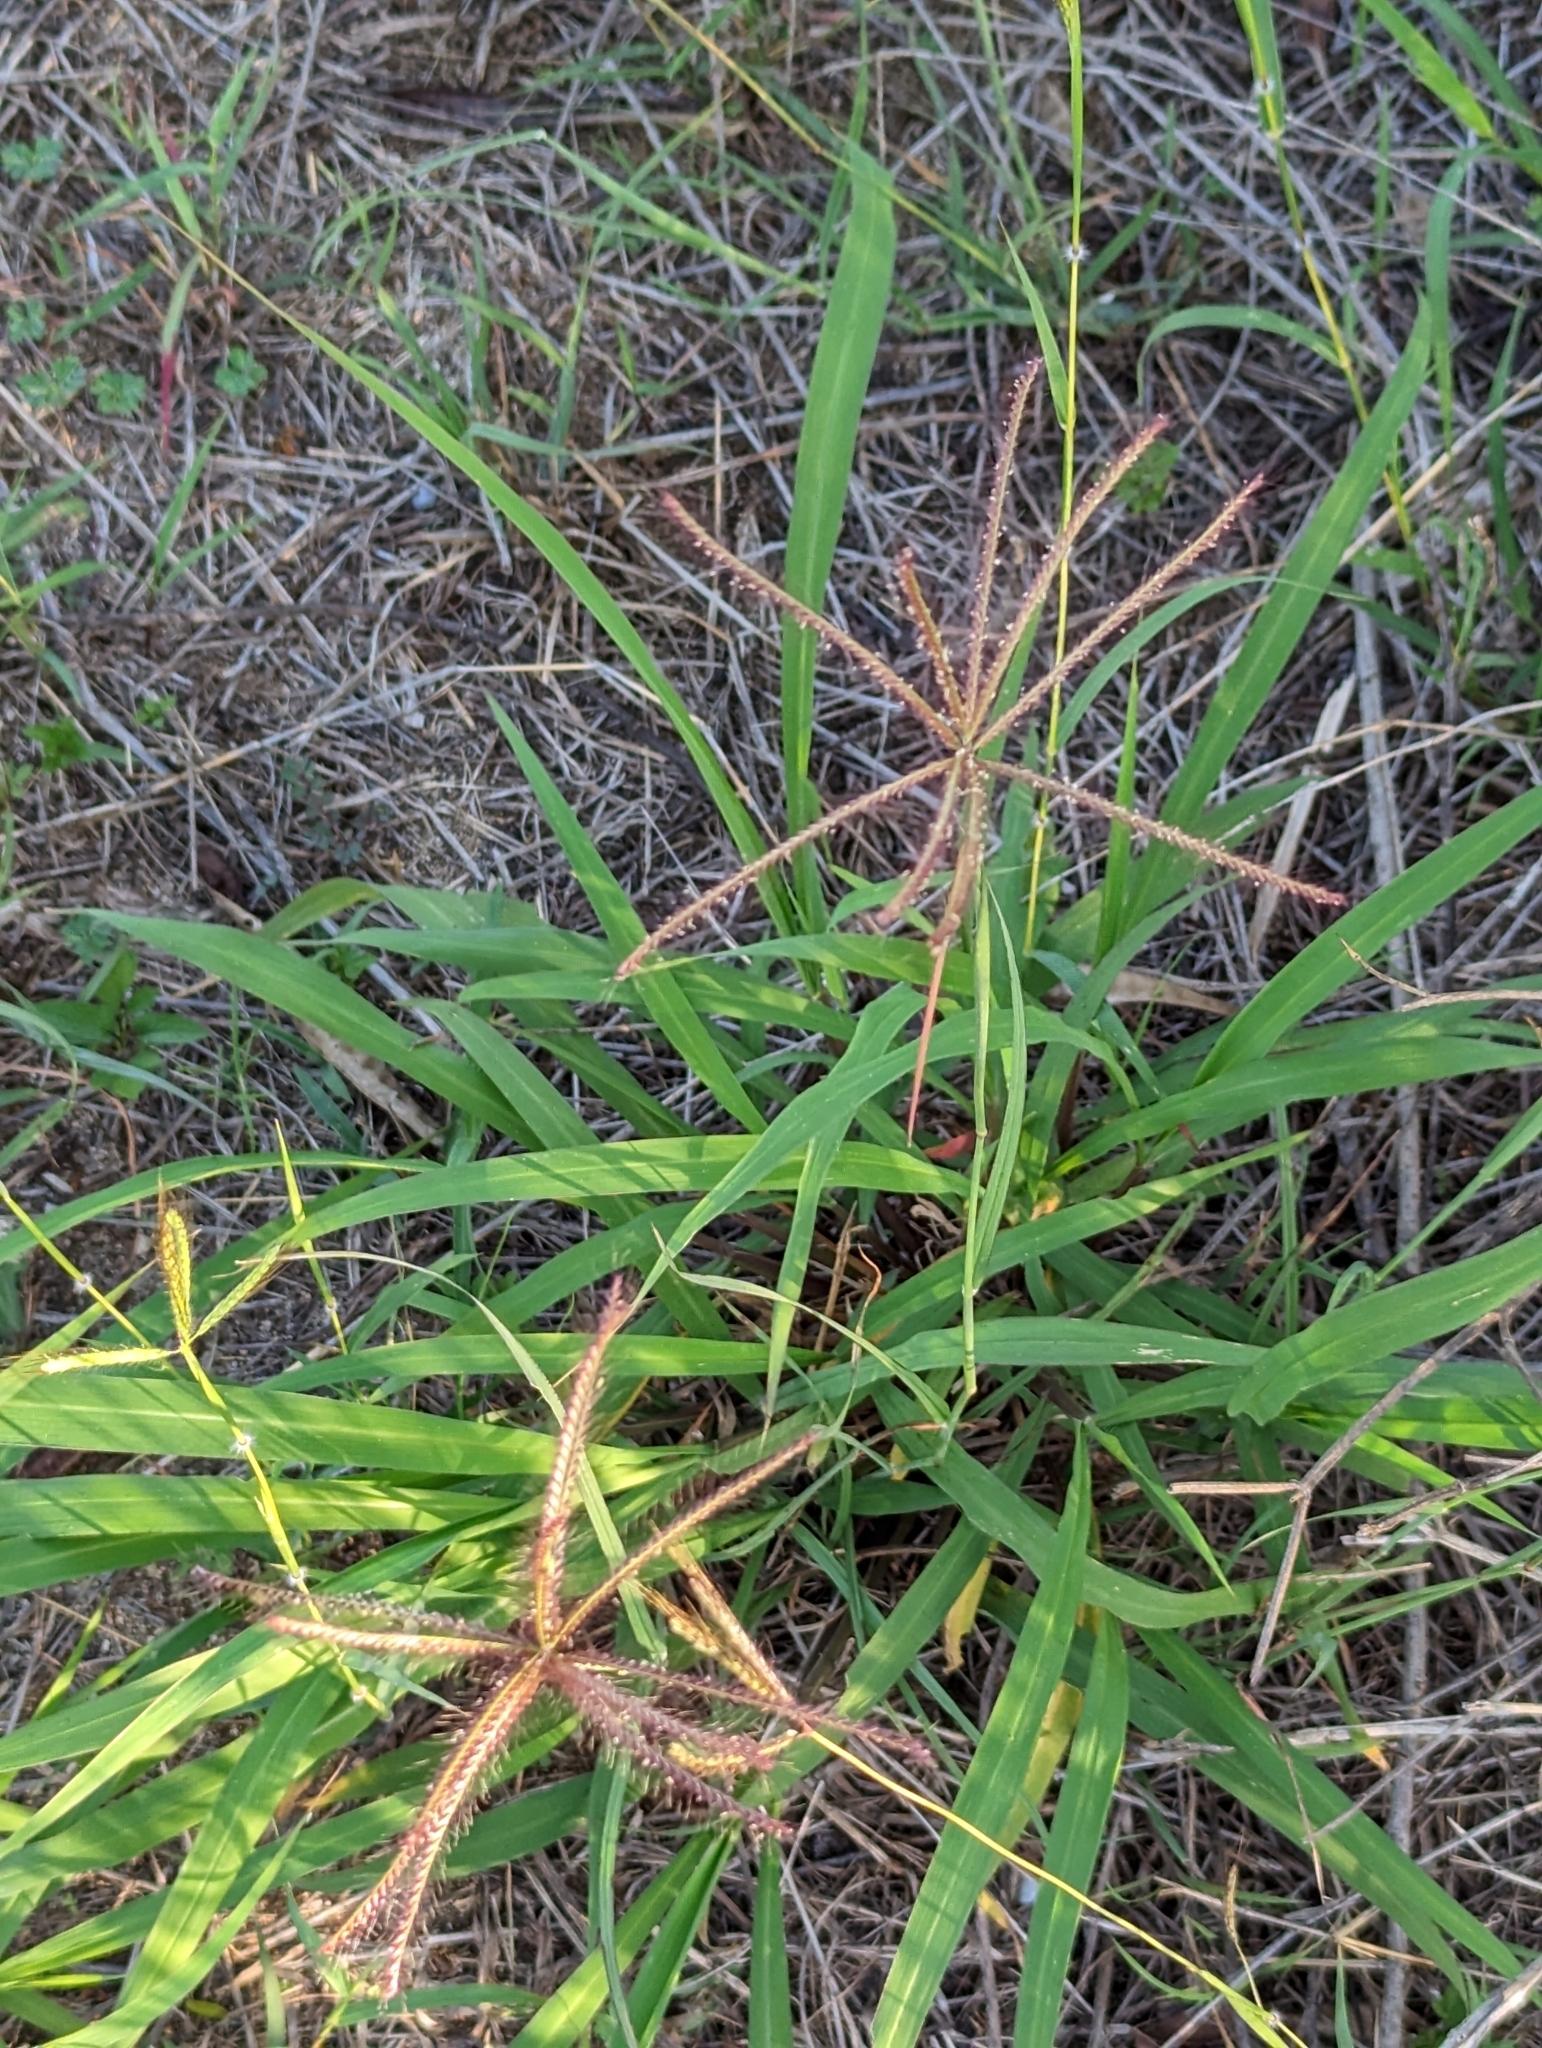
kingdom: Plantae
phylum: Tracheophyta
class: Liliopsida
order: Poales
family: Poaceae
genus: Chloris
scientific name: Chloris barbata
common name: Swollen fingergrass
